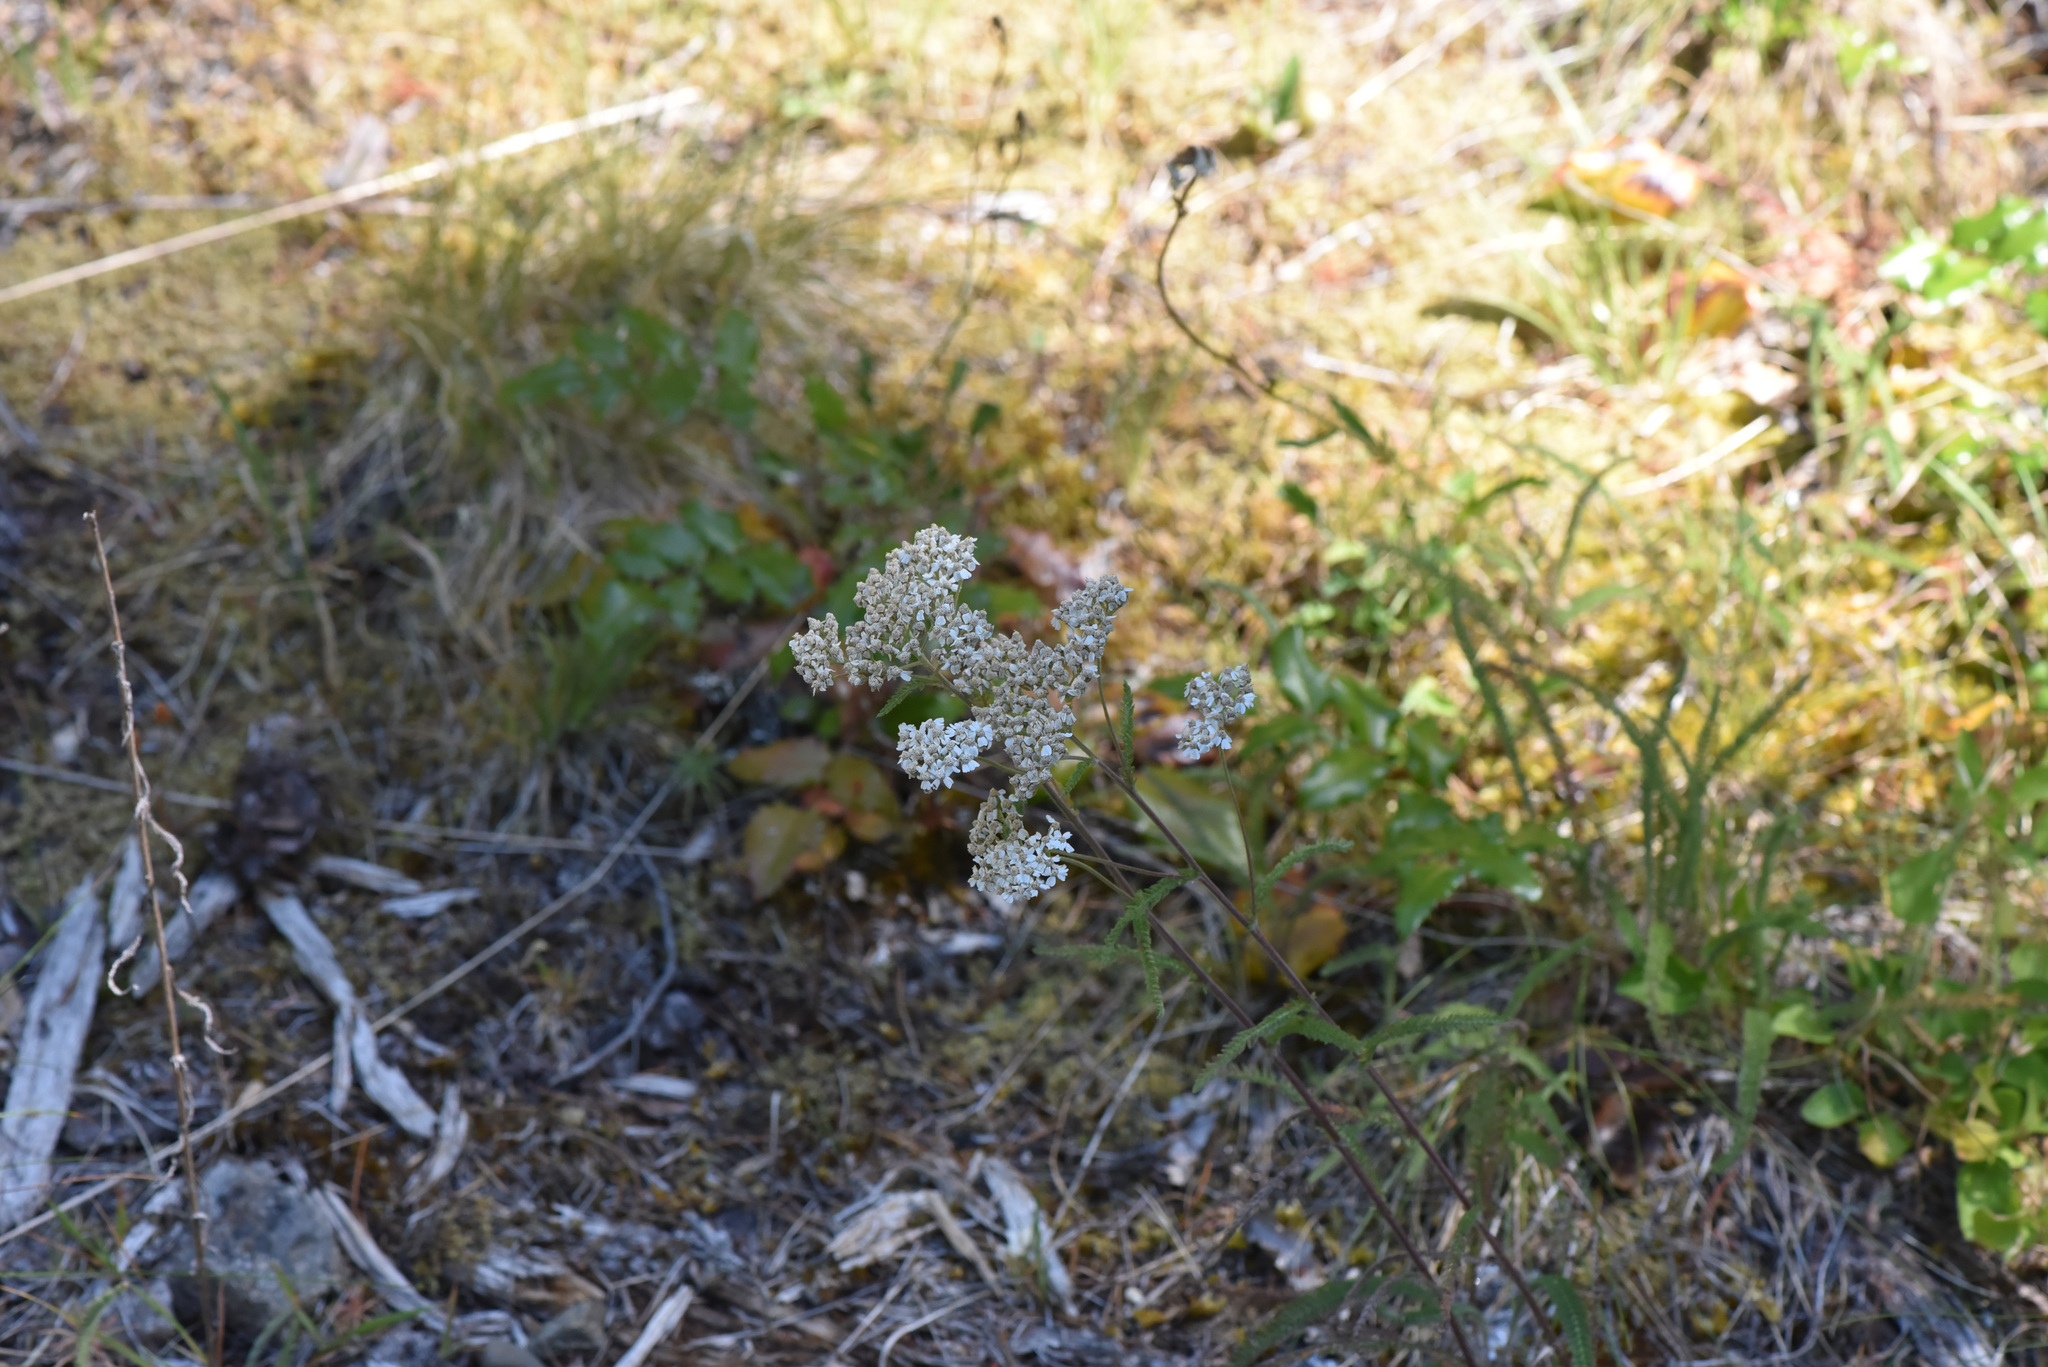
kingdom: Plantae
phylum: Tracheophyta
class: Magnoliopsida
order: Asterales
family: Asteraceae
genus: Achillea
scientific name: Achillea millefolium
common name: Yarrow
